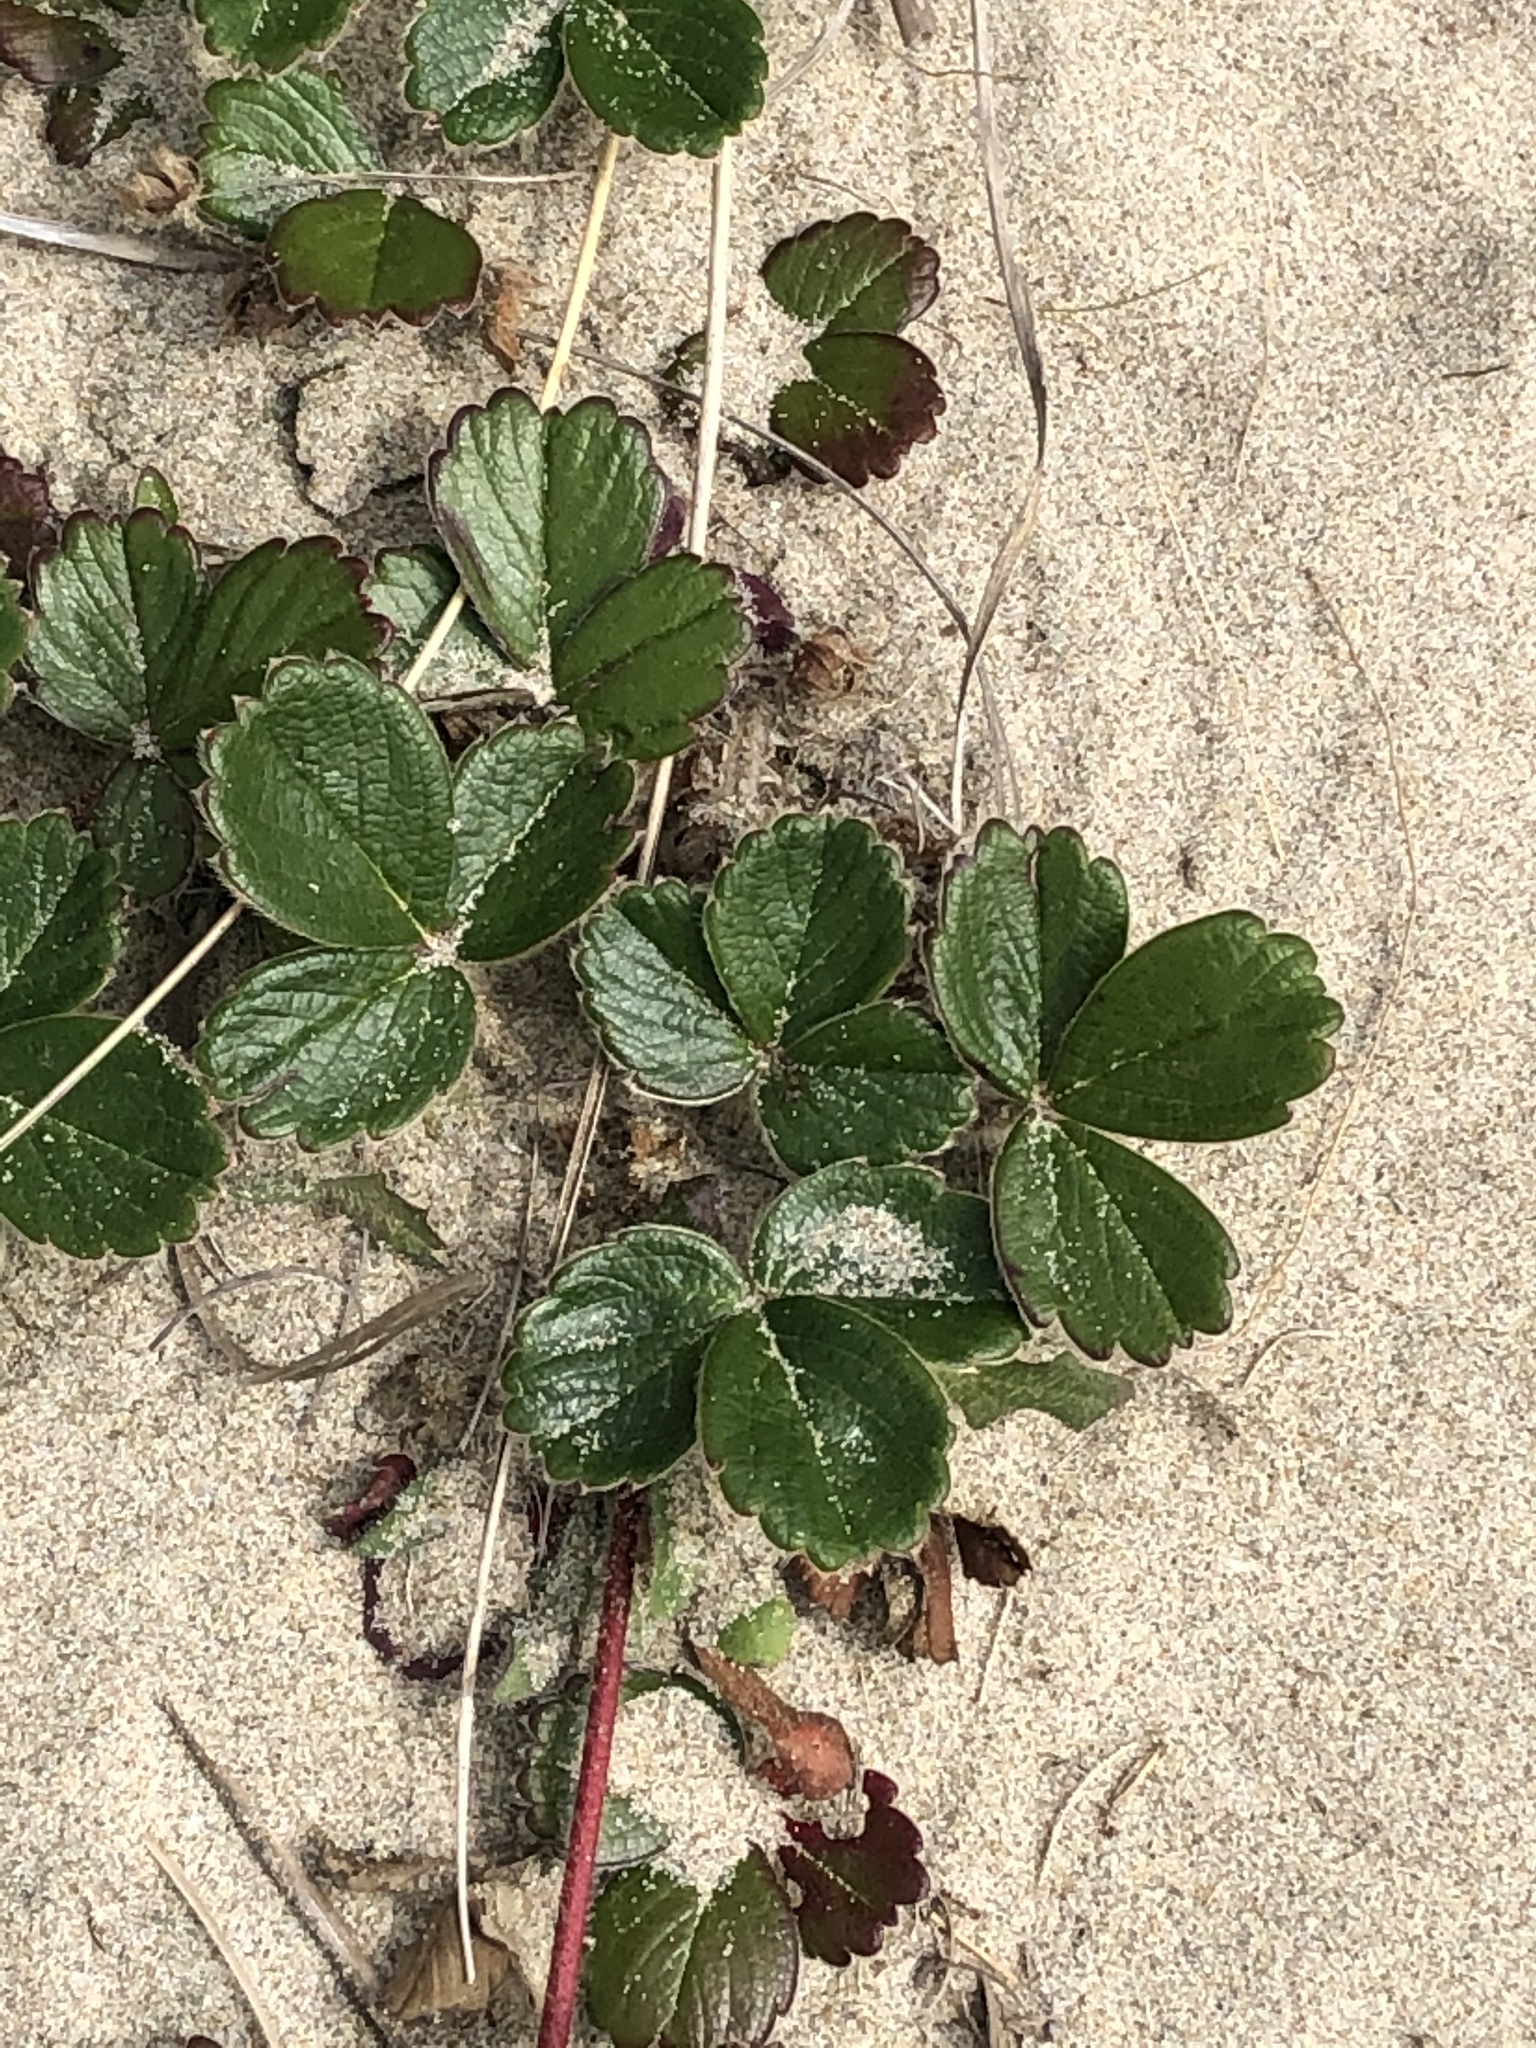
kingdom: Plantae
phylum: Tracheophyta
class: Magnoliopsida
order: Rosales
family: Rosaceae
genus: Fragaria
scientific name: Fragaria chiloensis
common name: Beach strawberry
